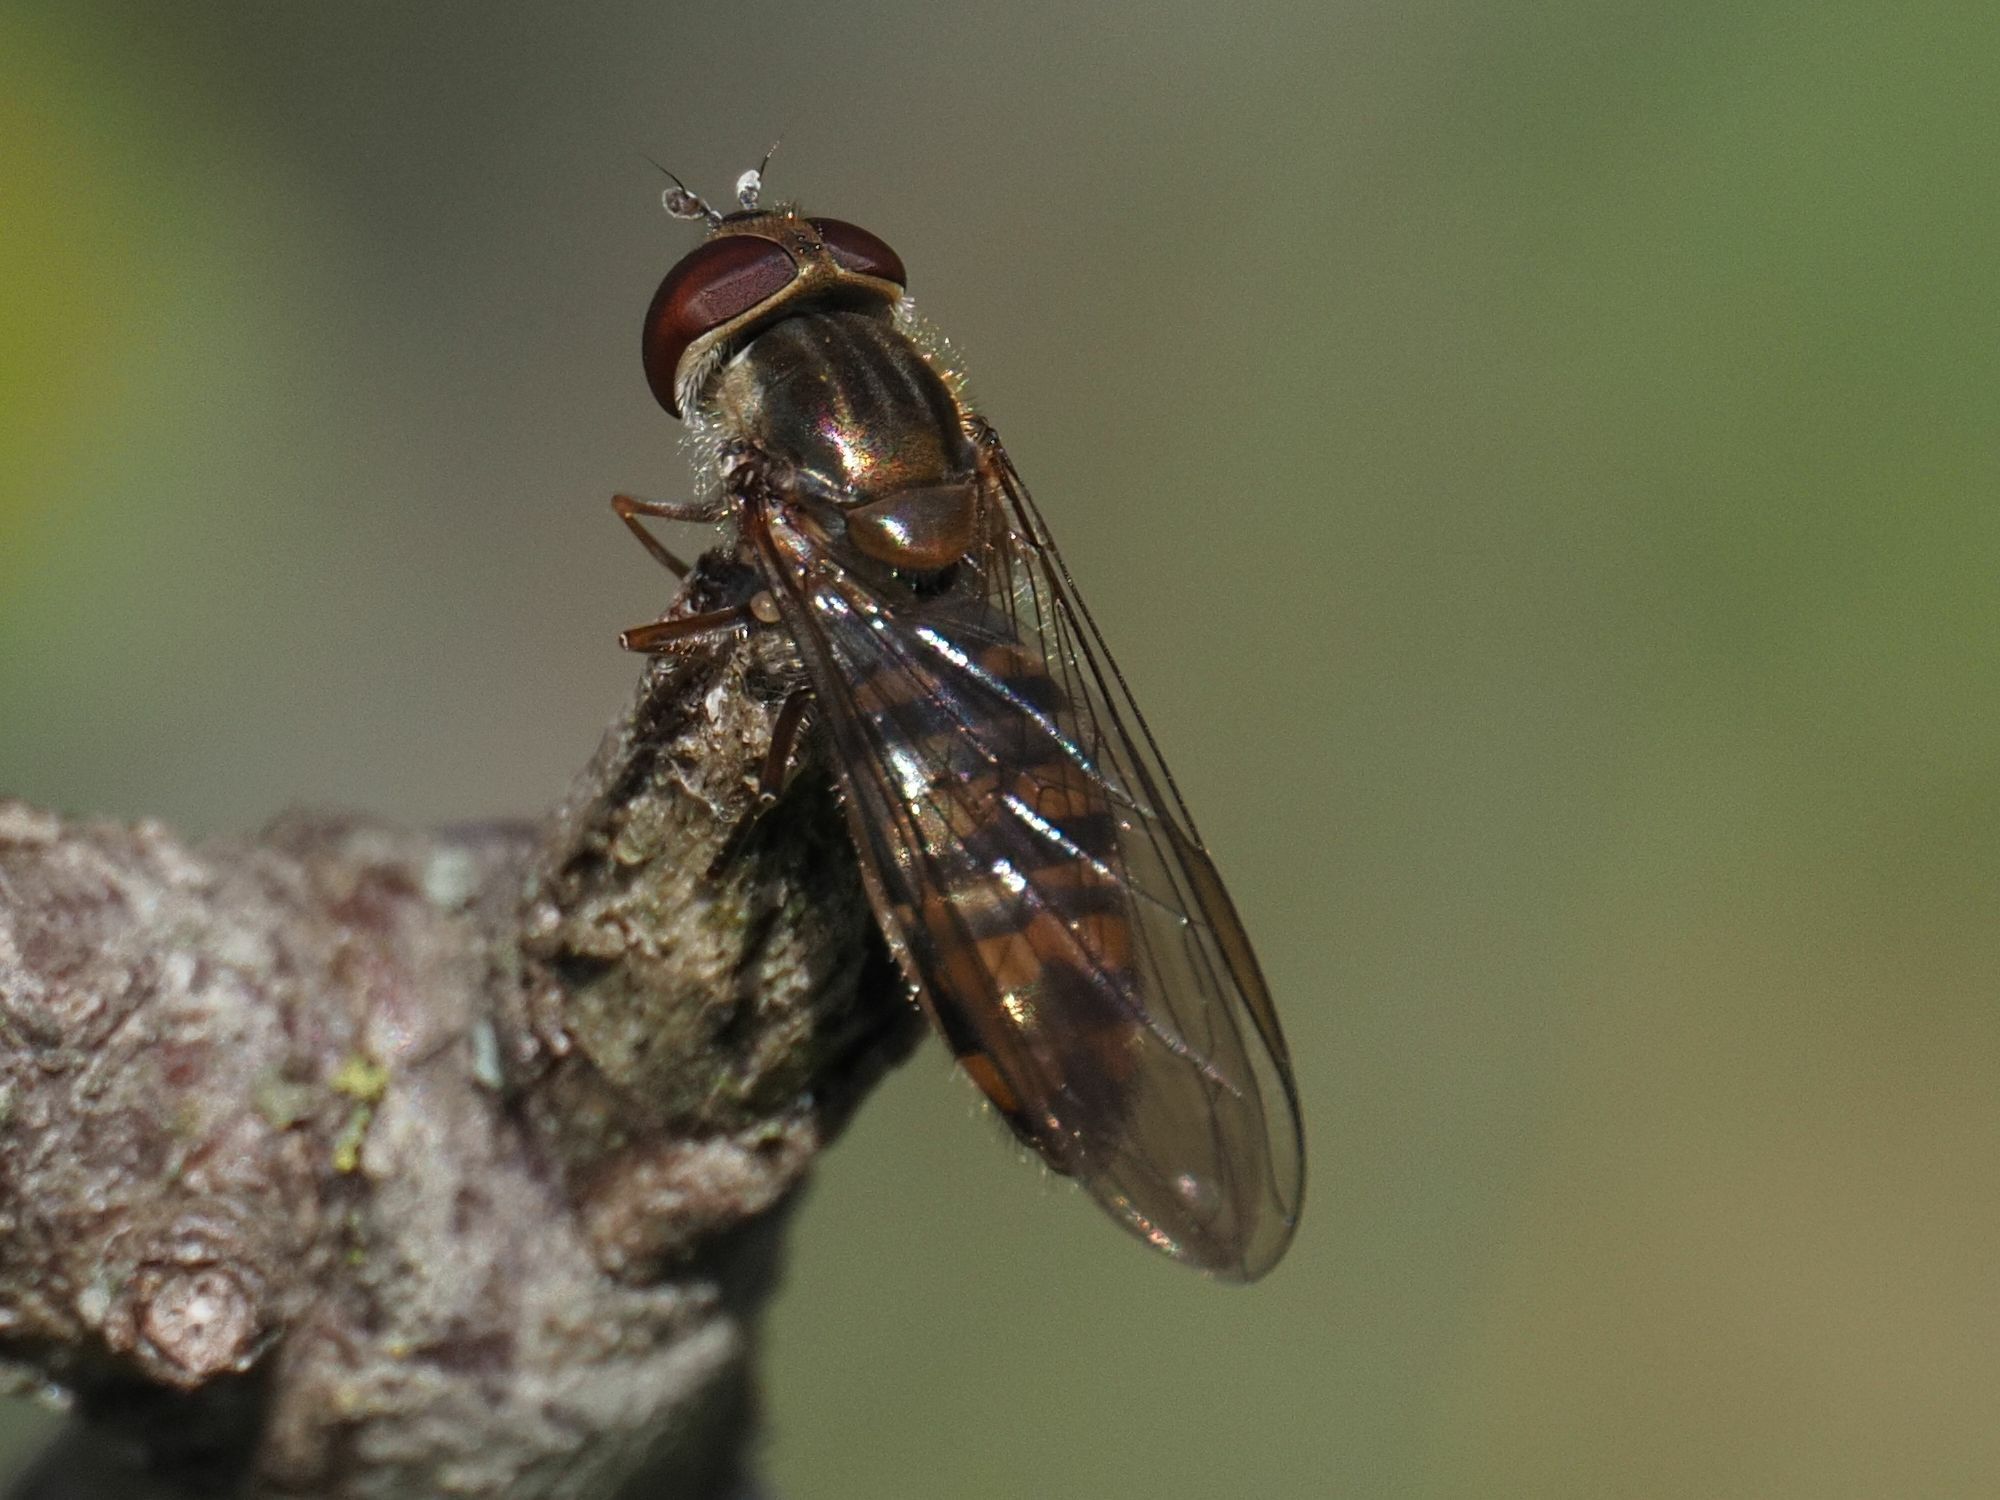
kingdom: Animalia
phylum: Arthropoda
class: Insecta
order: Diptera
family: Syrphidae
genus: Episyrphus
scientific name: Episyrphus balteatus
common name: Marmalade hoverfly
